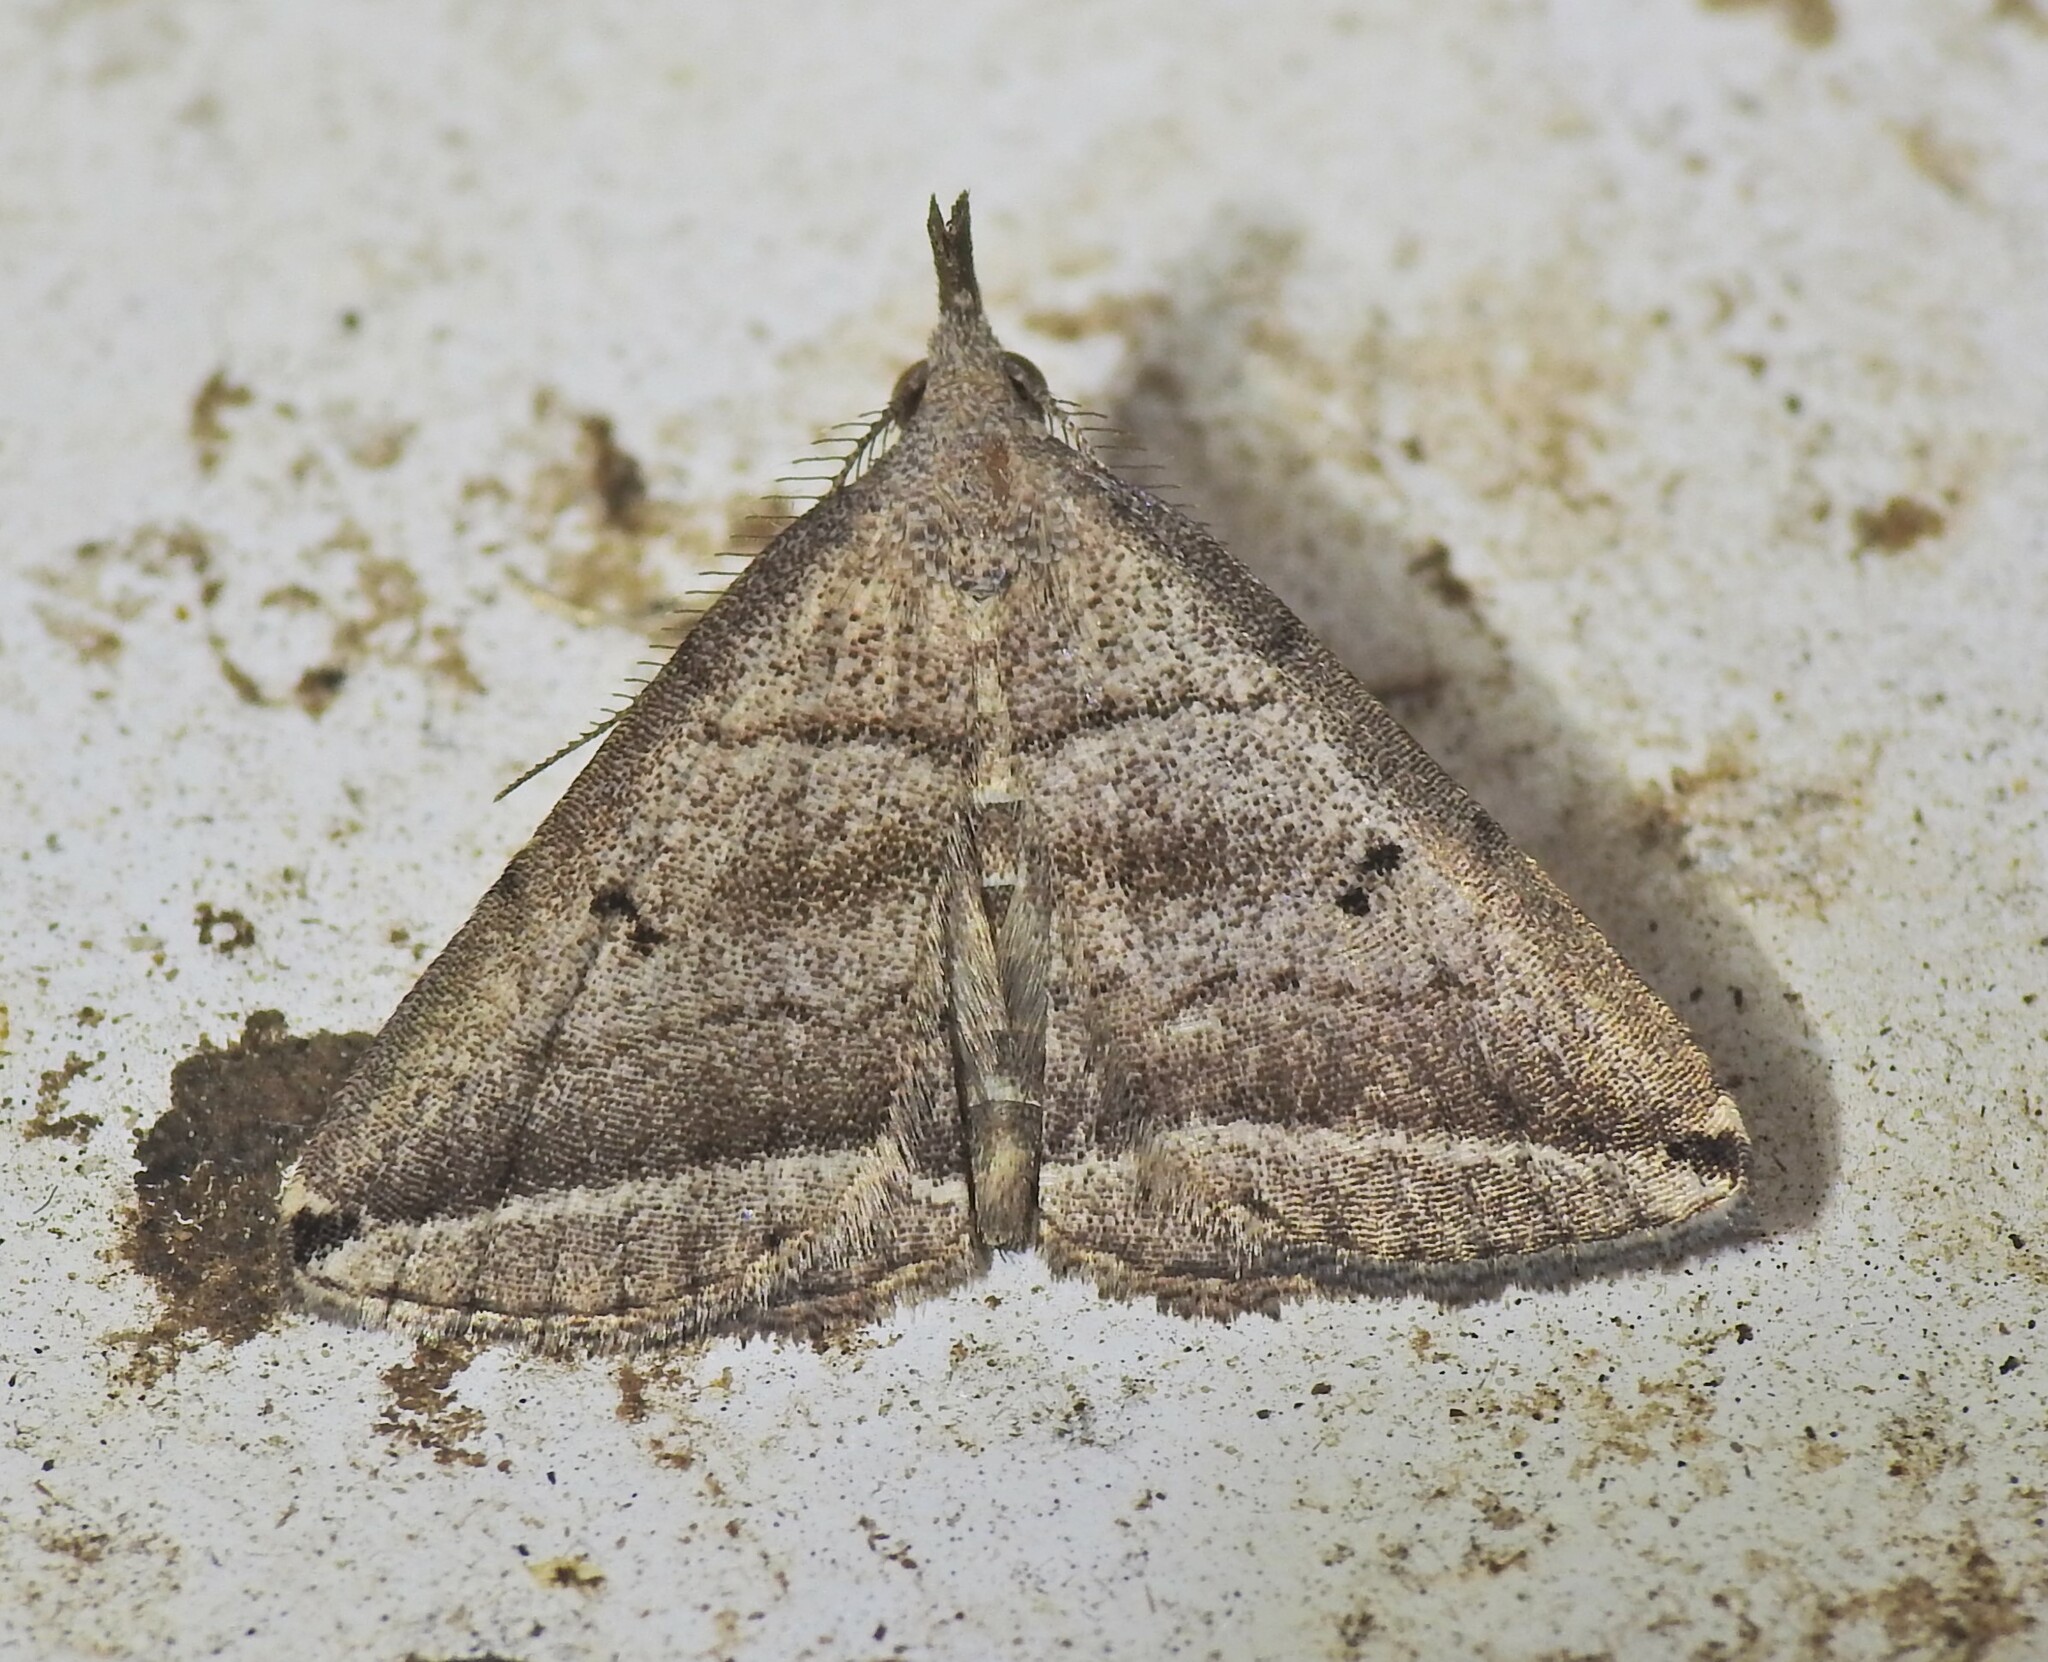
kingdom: Animalia
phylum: Arthropoda
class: Insecta
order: Lepidoptera
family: Erebidae
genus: Lysimelia
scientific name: Lysimelia lenis
